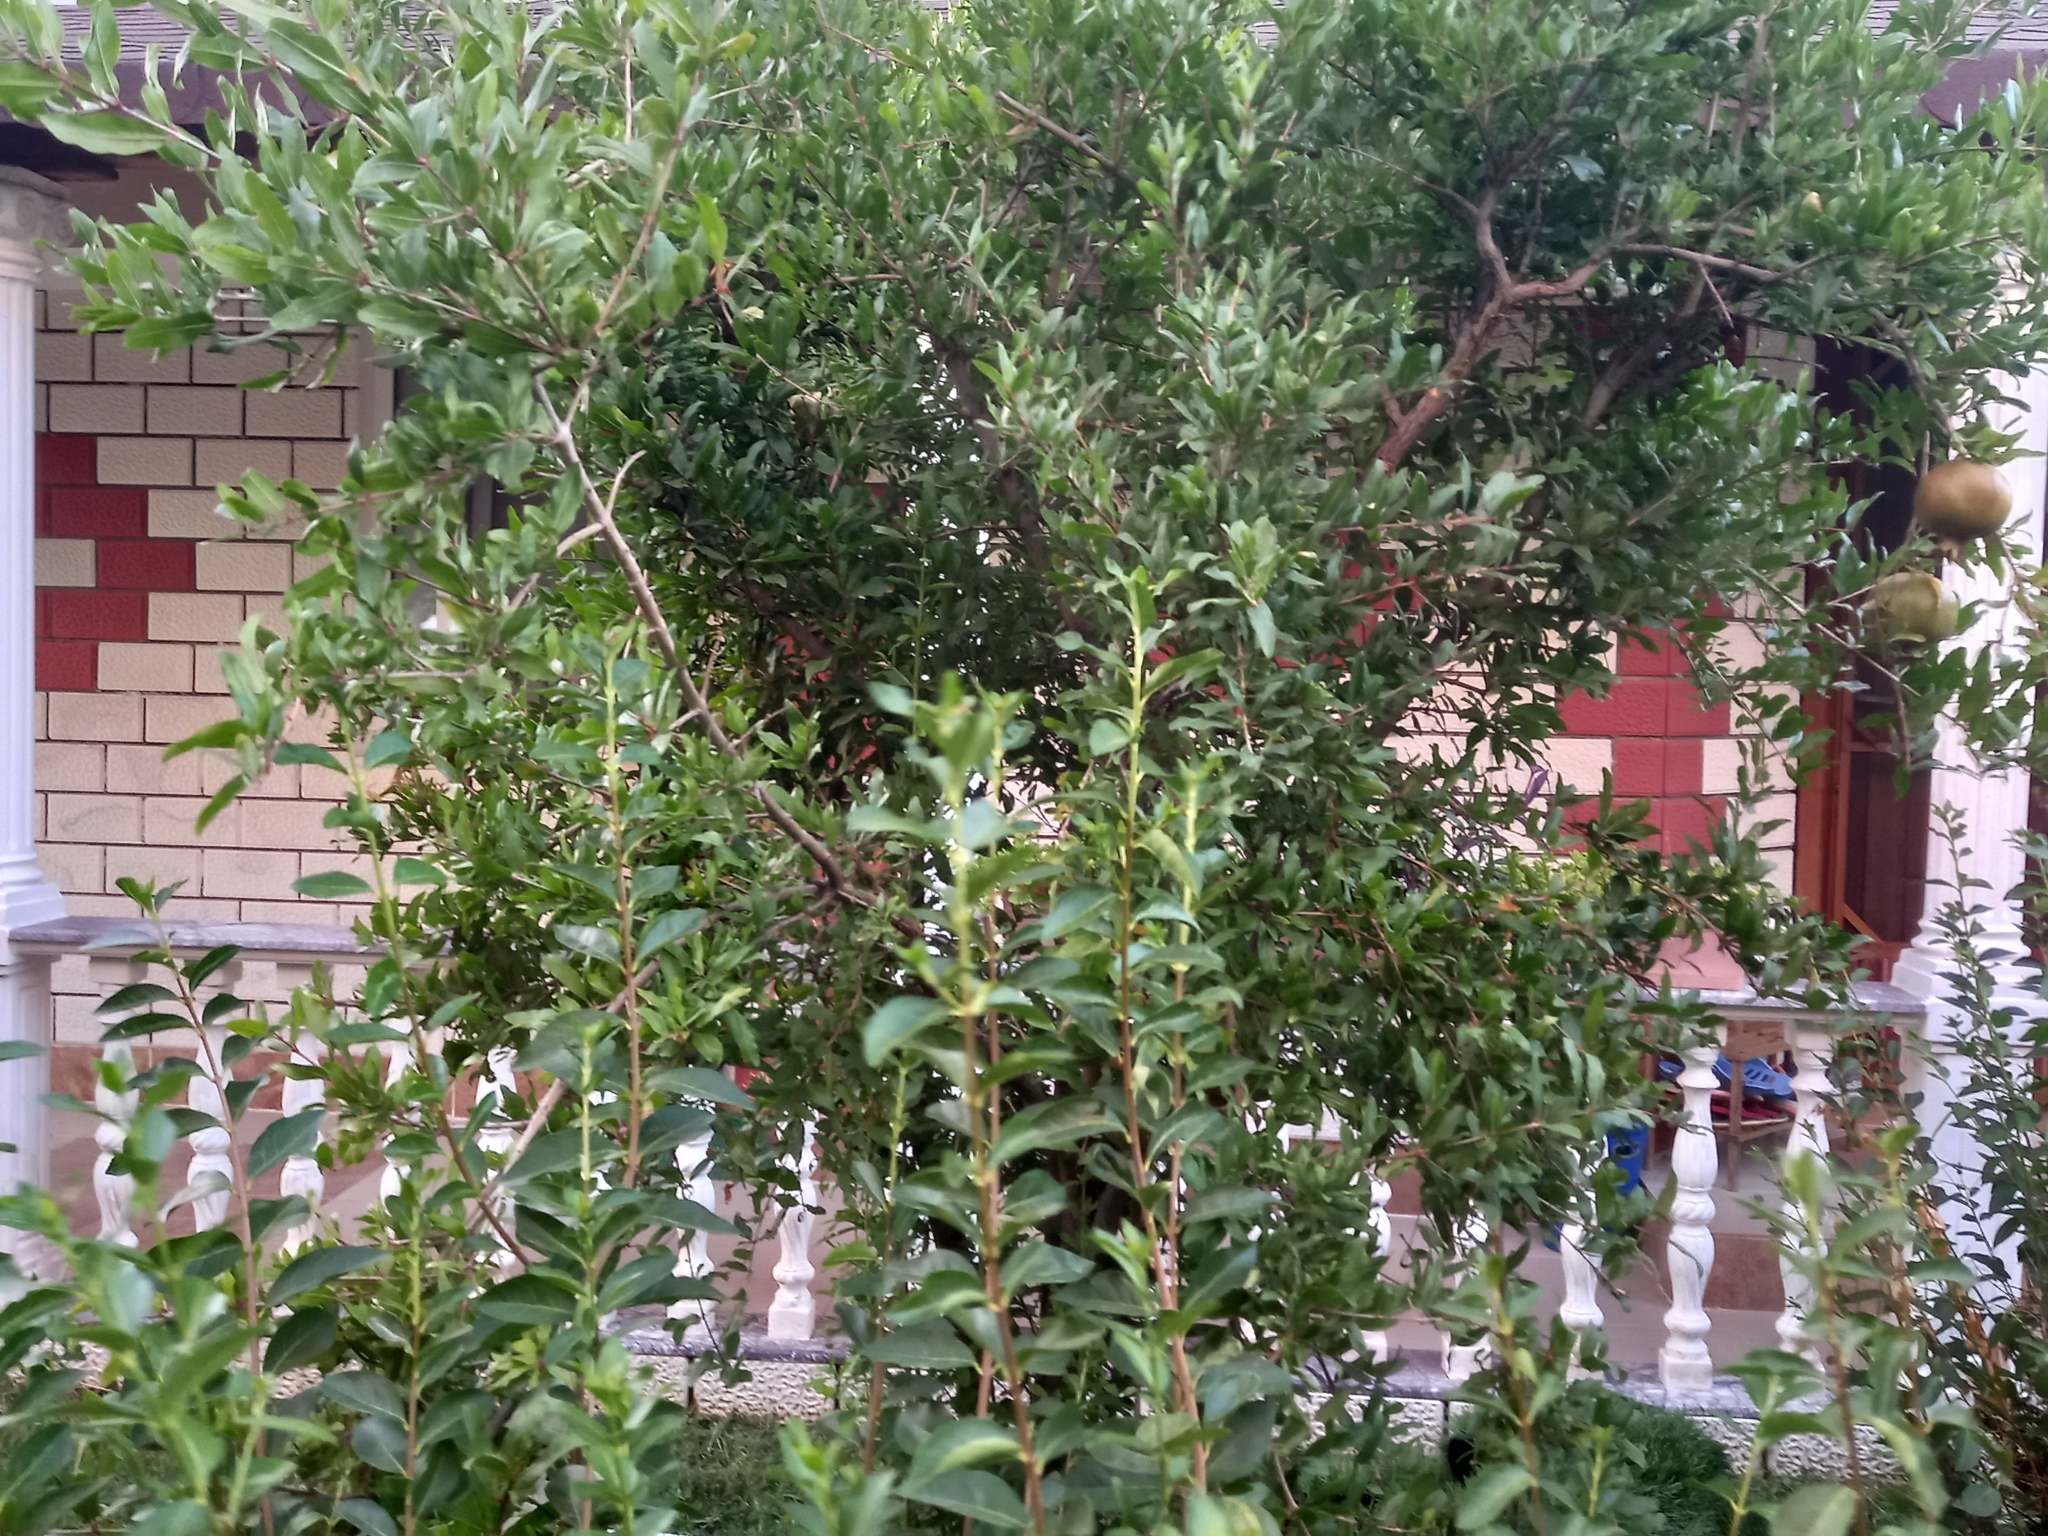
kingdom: Plantae
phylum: Tracheophyta
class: Magnoliopsida
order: Myrtales
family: Lythraceae
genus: Punica
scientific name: Punica granatum
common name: Pomegranate
